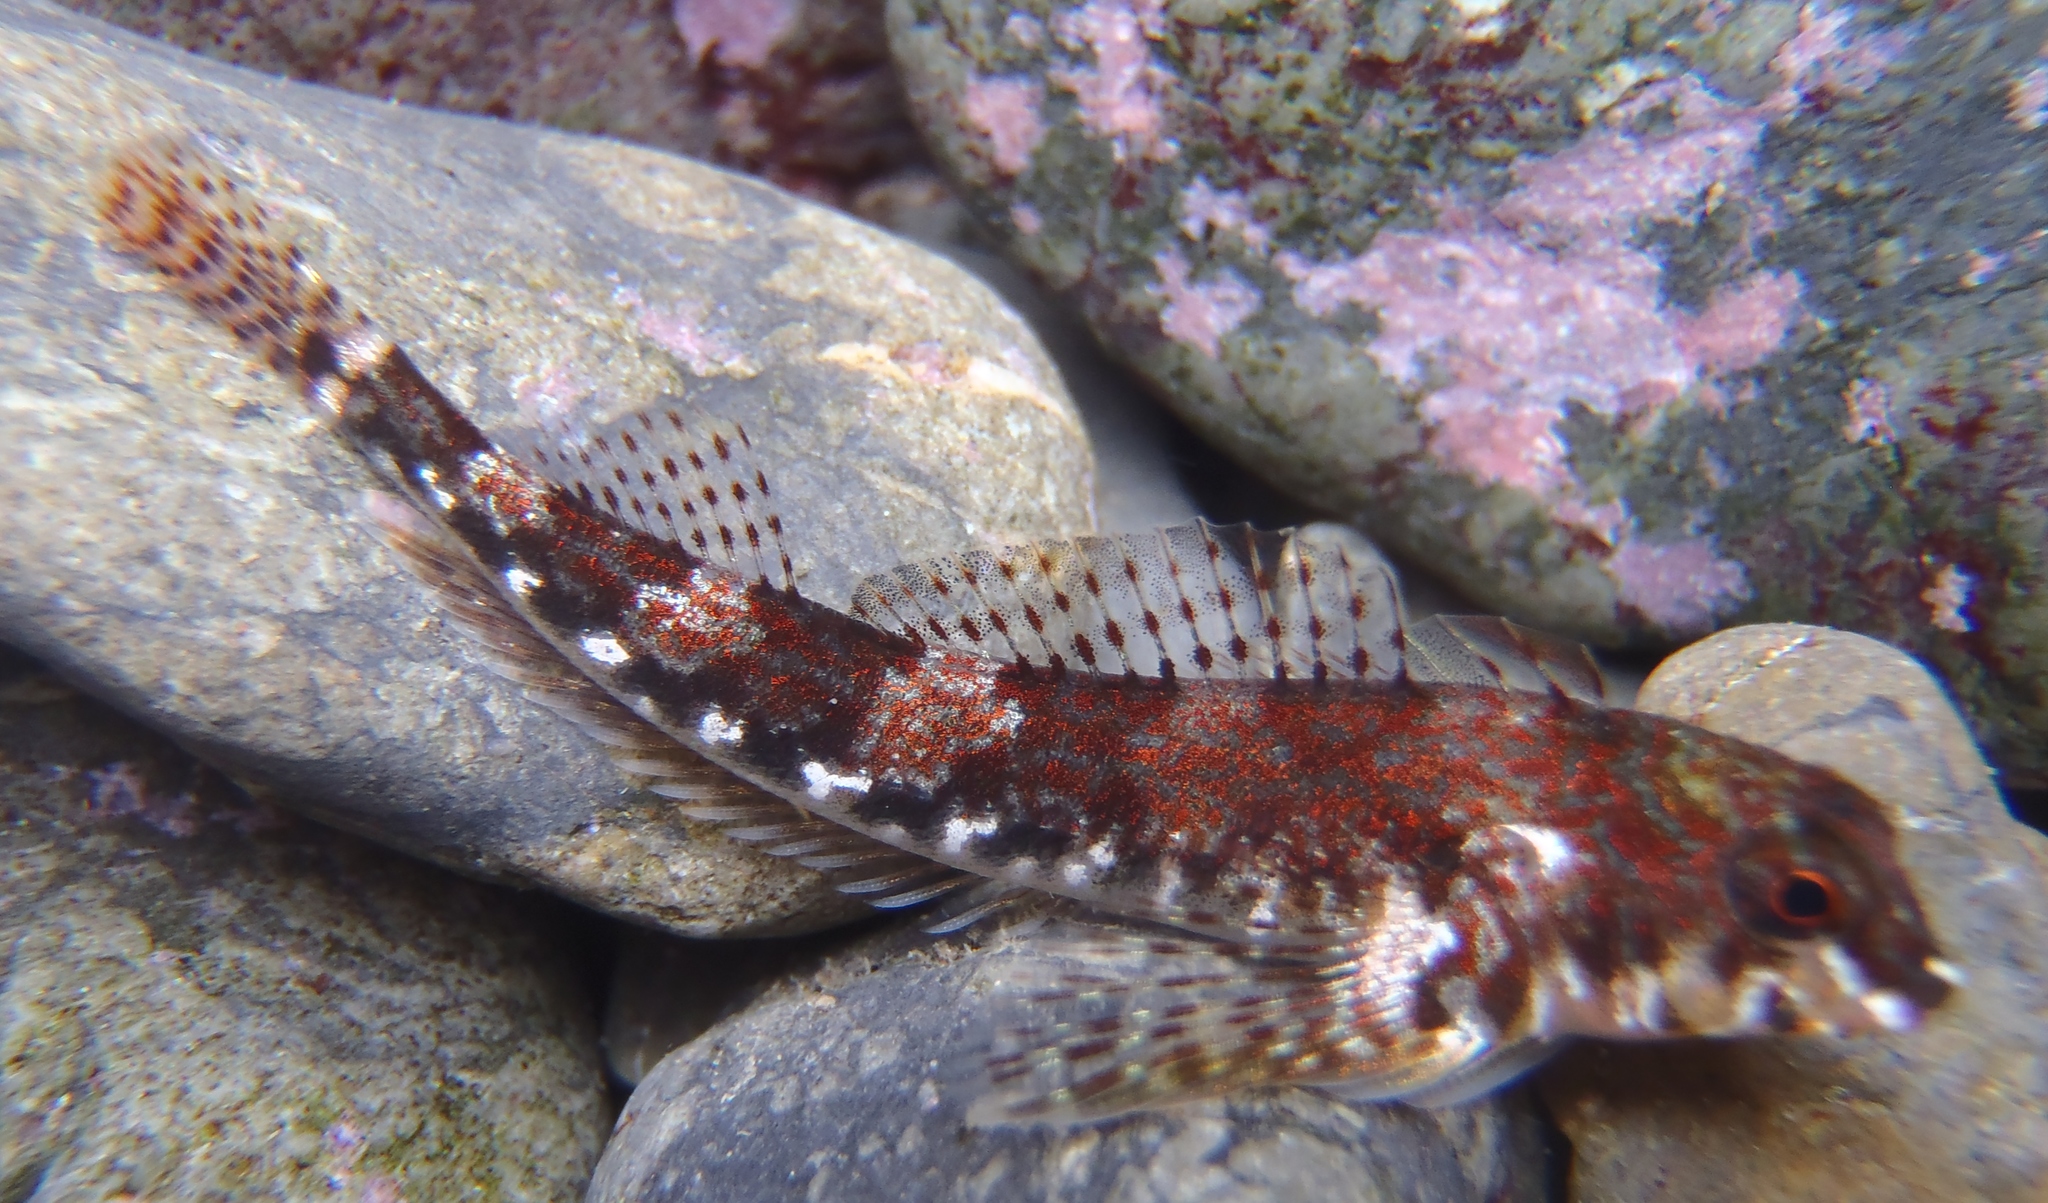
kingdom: Animalia
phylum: Chordata
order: Perciformes
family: Tripterygiidae
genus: Bellapiscis
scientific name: Bellapiscis lesleyae
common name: Mottled twister
